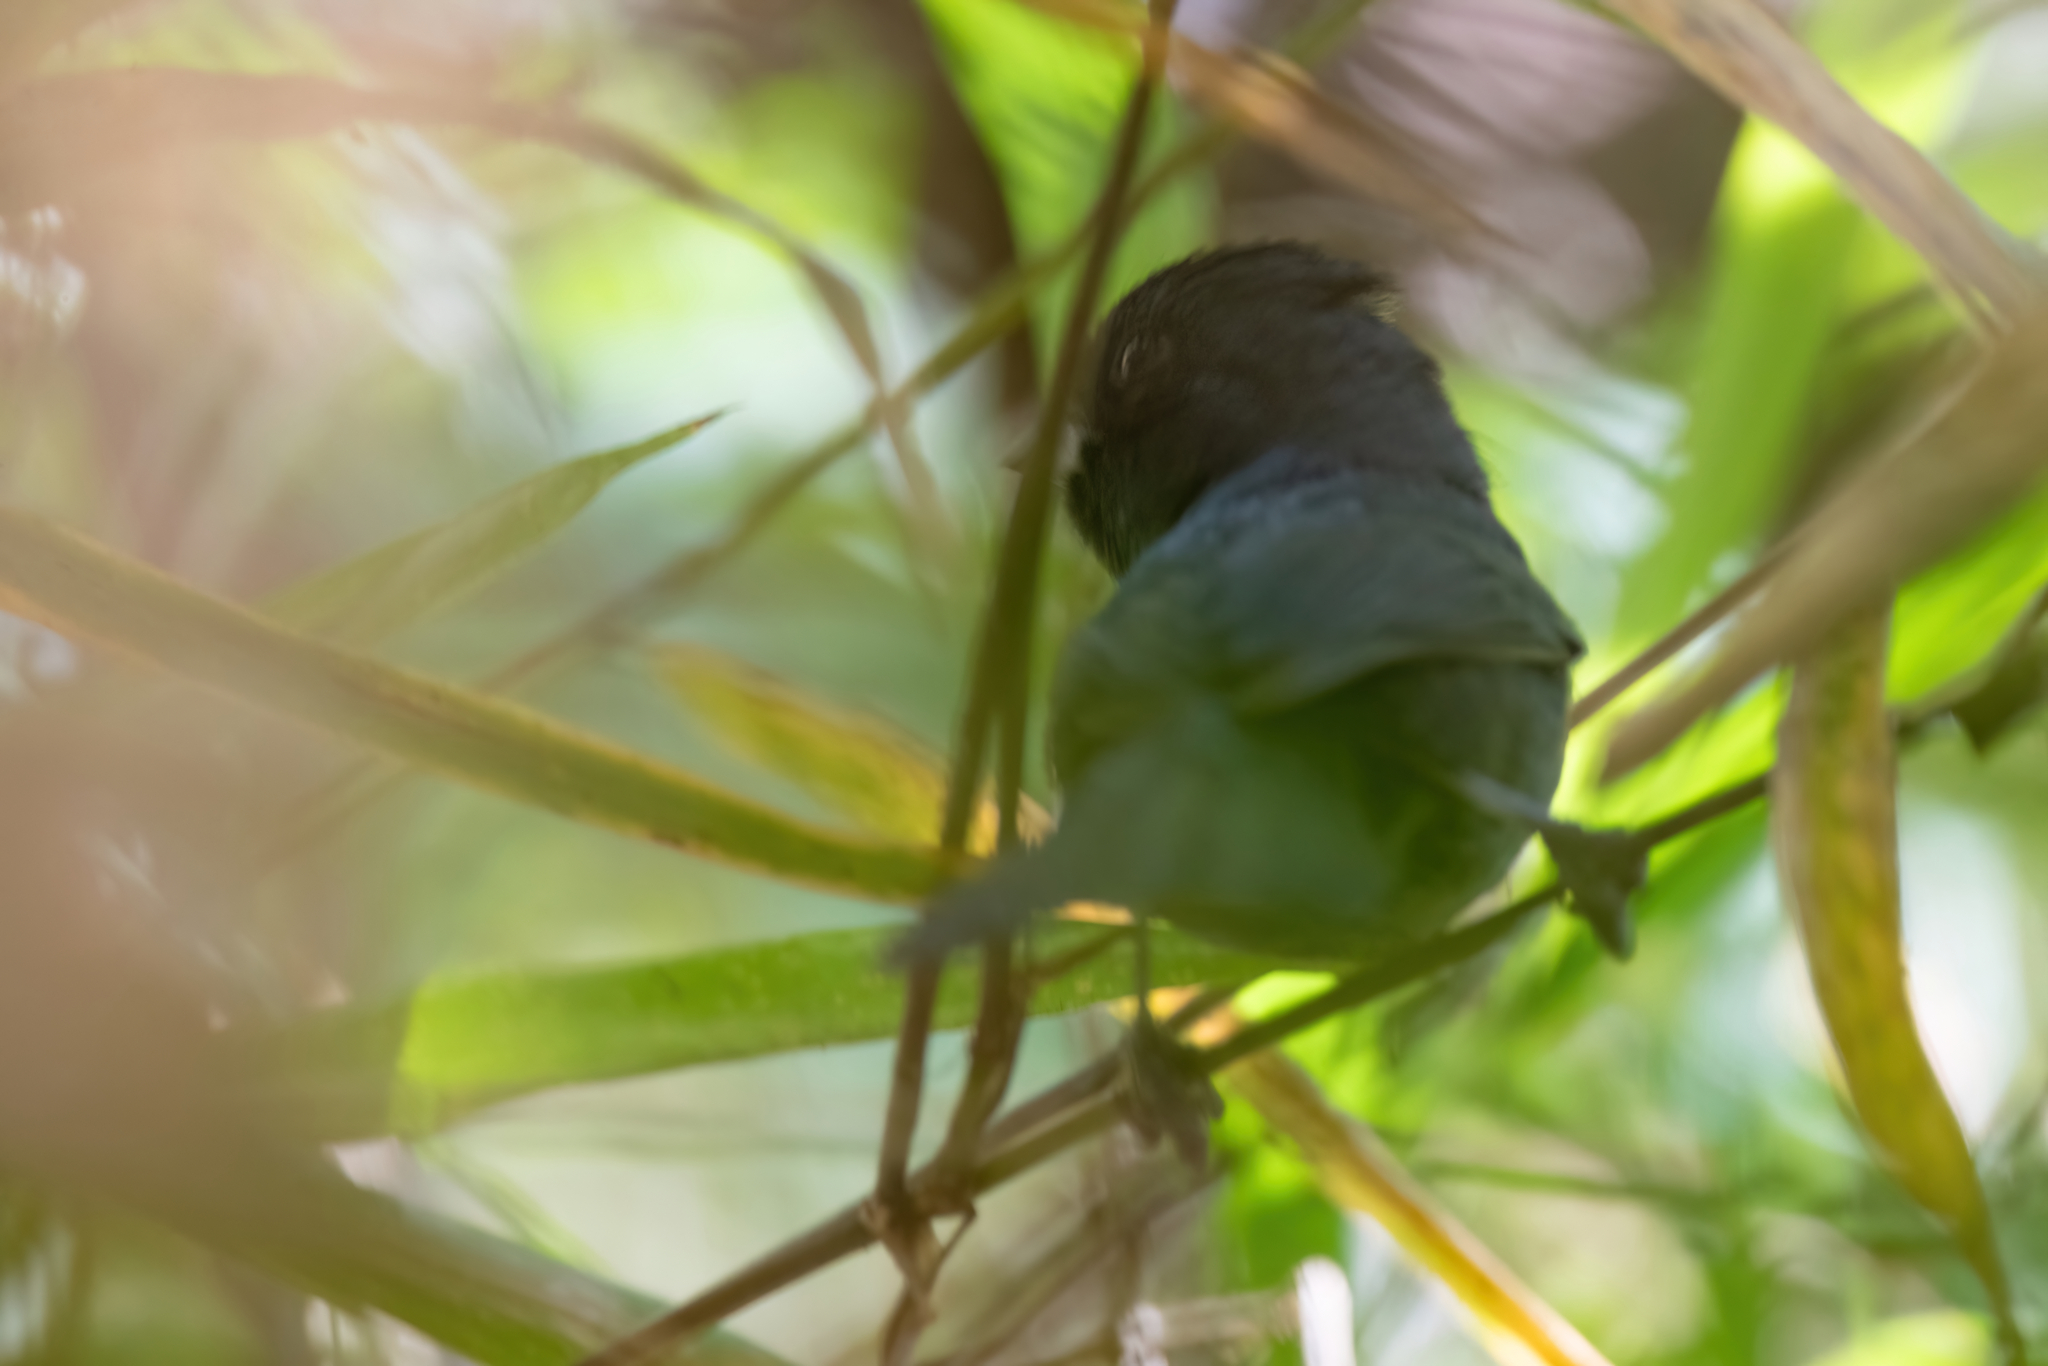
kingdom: Animalia
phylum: Chordata
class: Aves
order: Passeriformes
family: Thraupidae
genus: Volatinia
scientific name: Volatinia jacarina
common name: Blue-black grassquit
